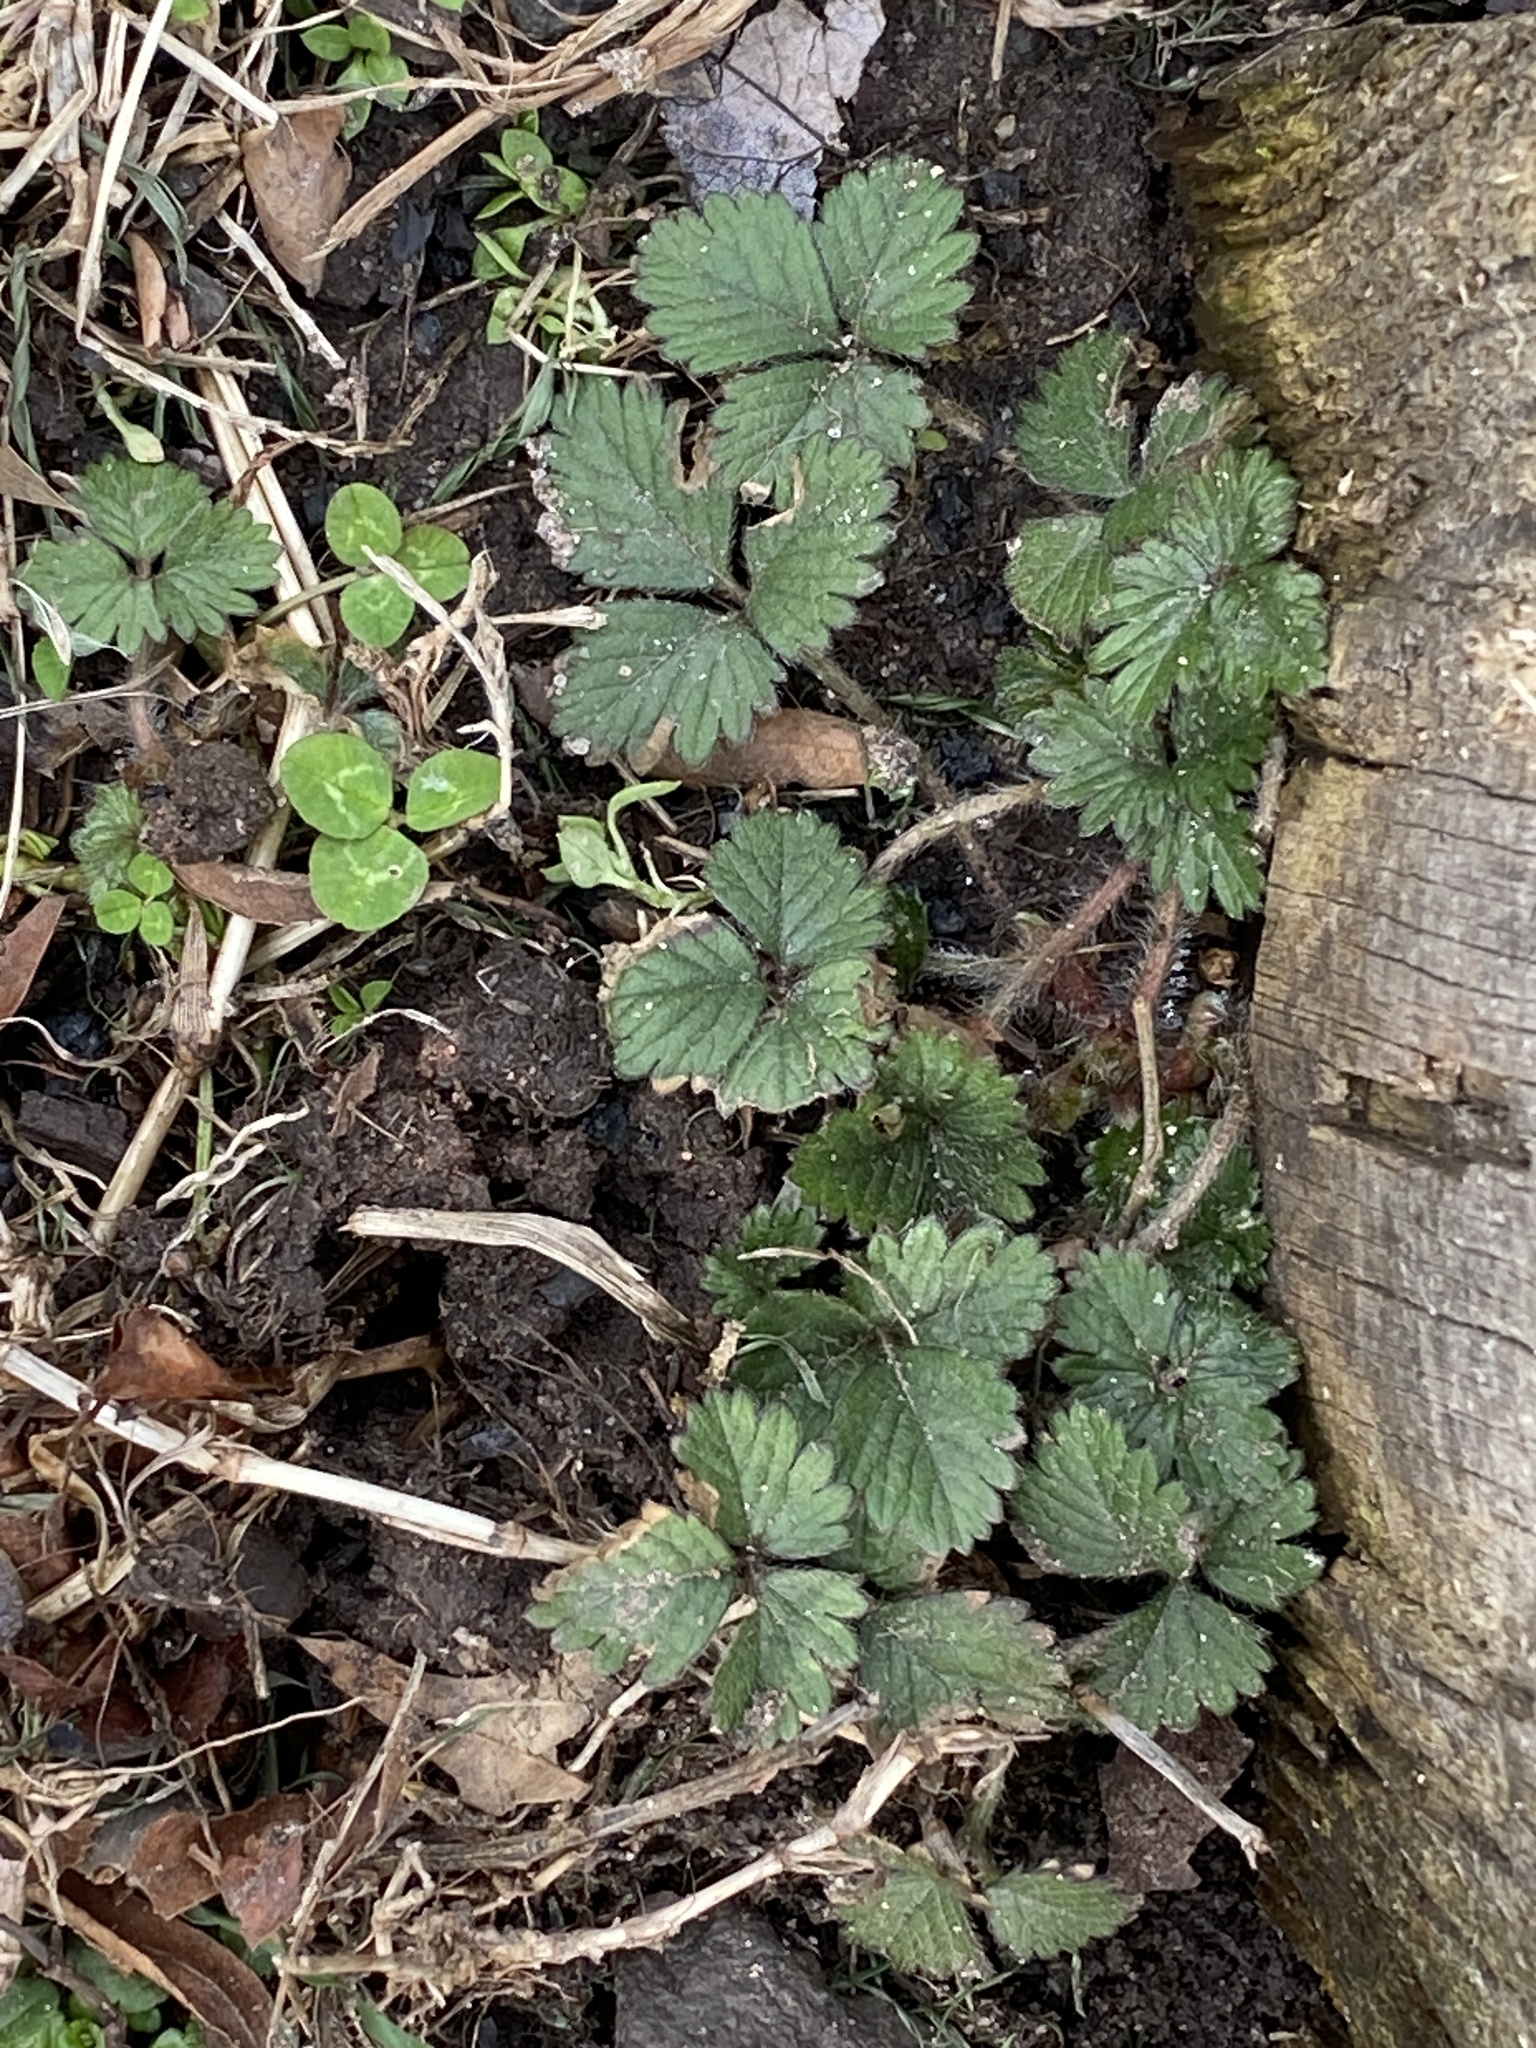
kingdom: Plantae
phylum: Tracheophyta
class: Magnoliopsida
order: Rosales
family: Rosaceae
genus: Potentilla
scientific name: Potentilla indica
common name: Yellow-flowered strawberry
